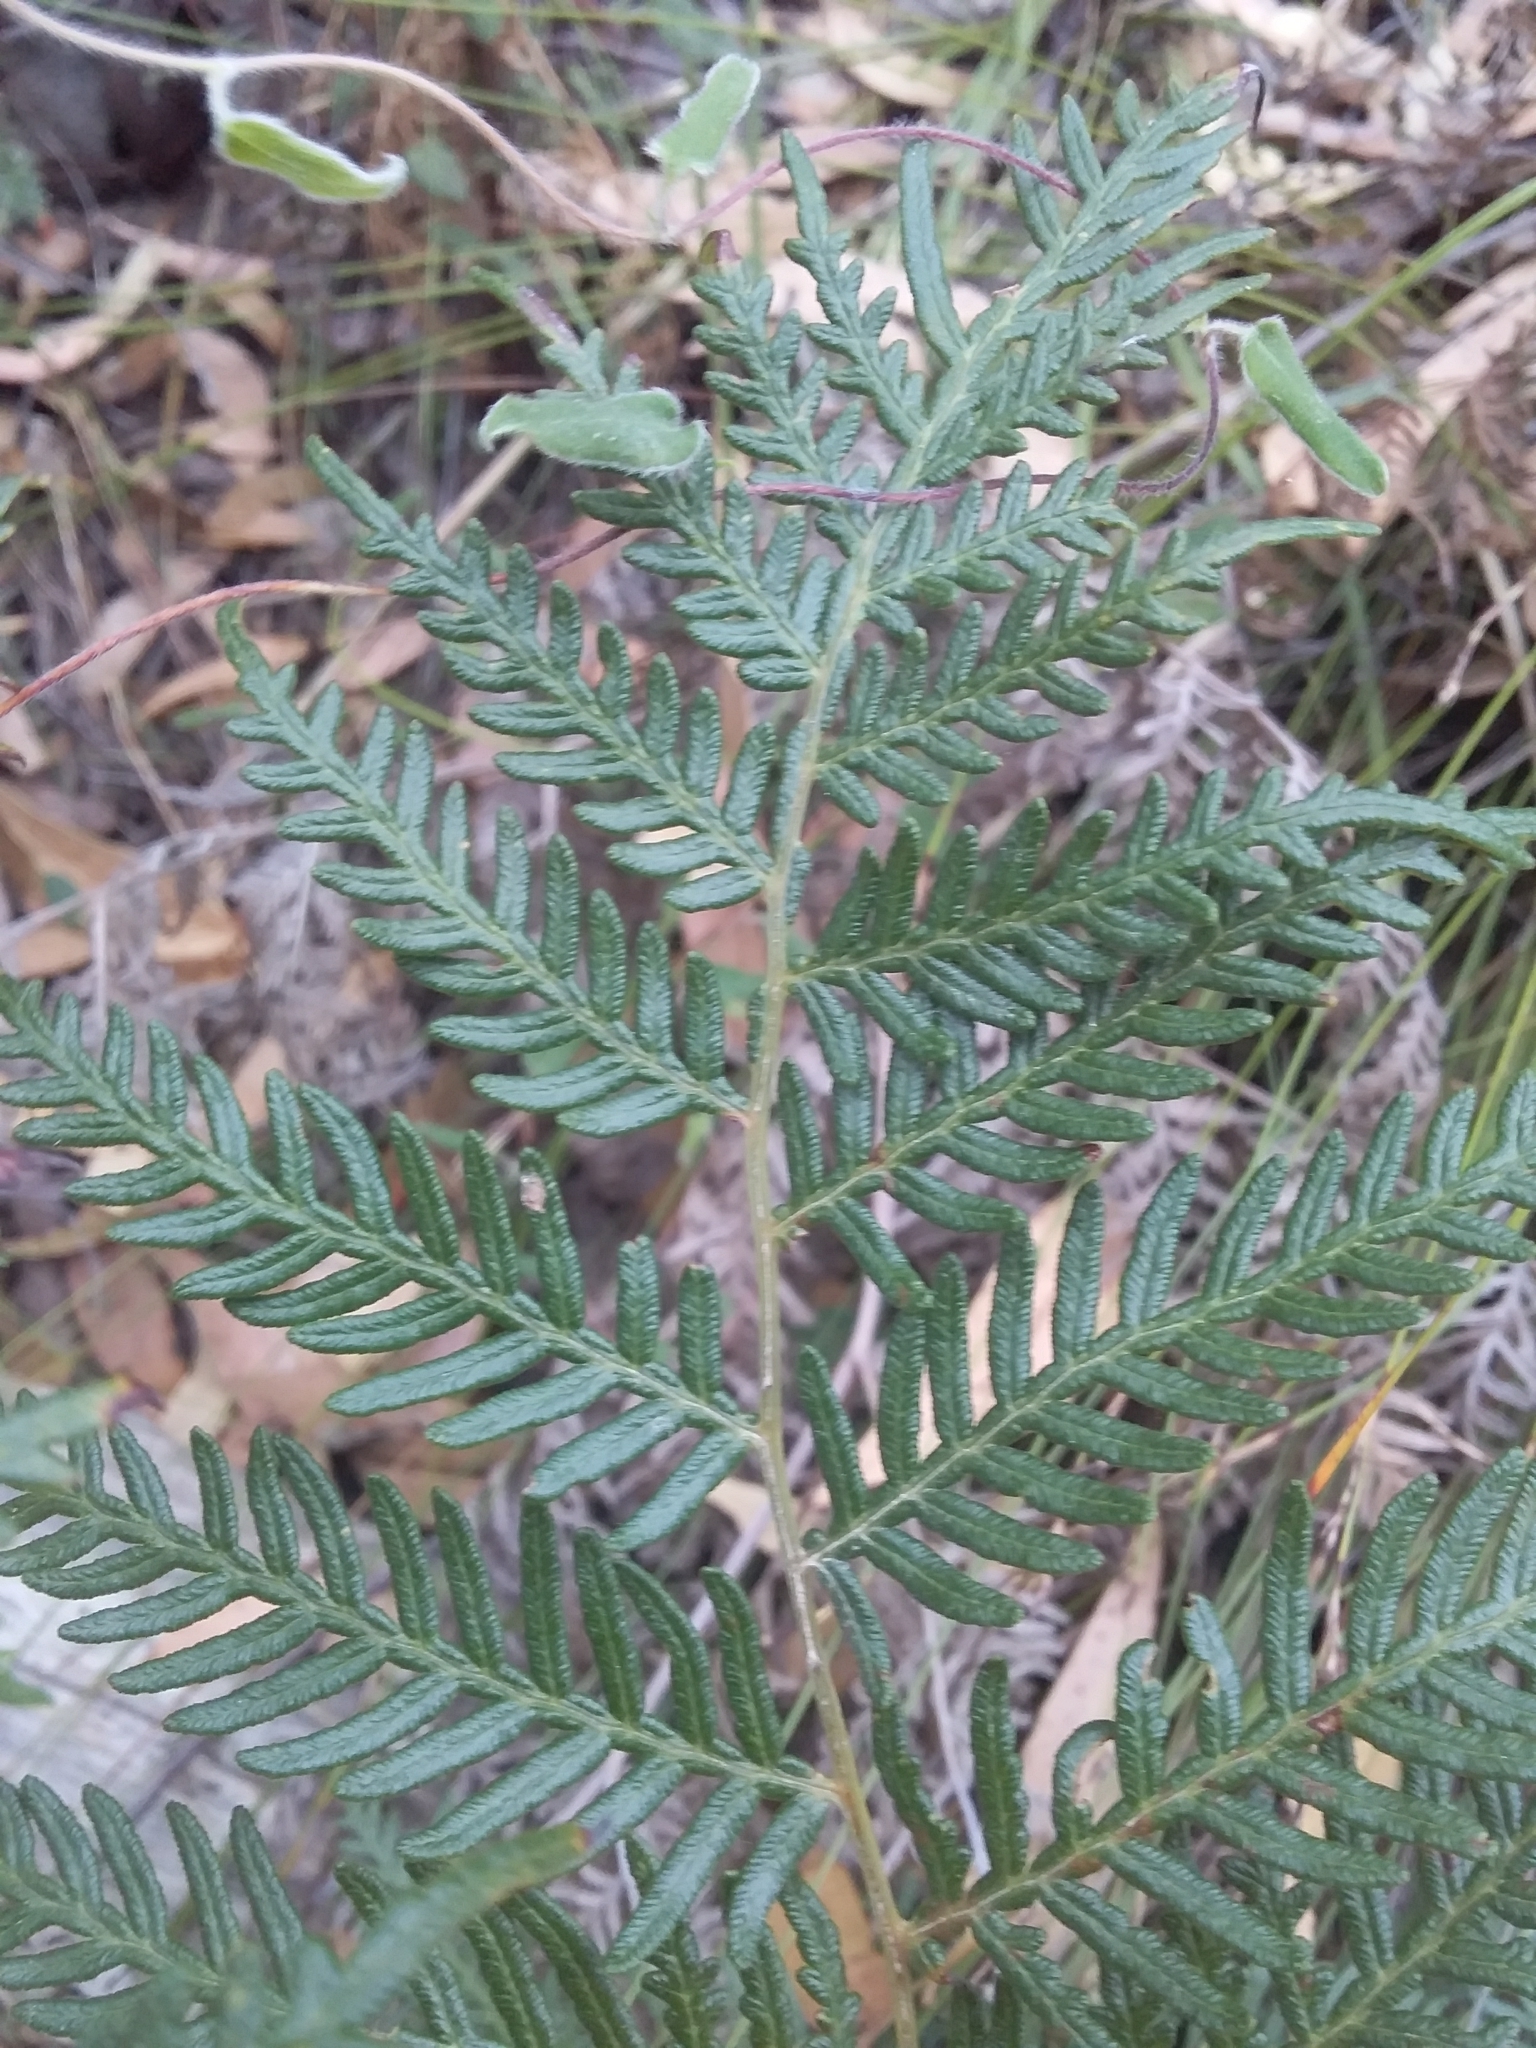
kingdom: Plantae
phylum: Tracheophyta
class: Polypodiopsida
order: Polypodiales
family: Dennstaedtiaceae
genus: Pteridium
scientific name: Pteridium esculentum
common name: Bracken fern
